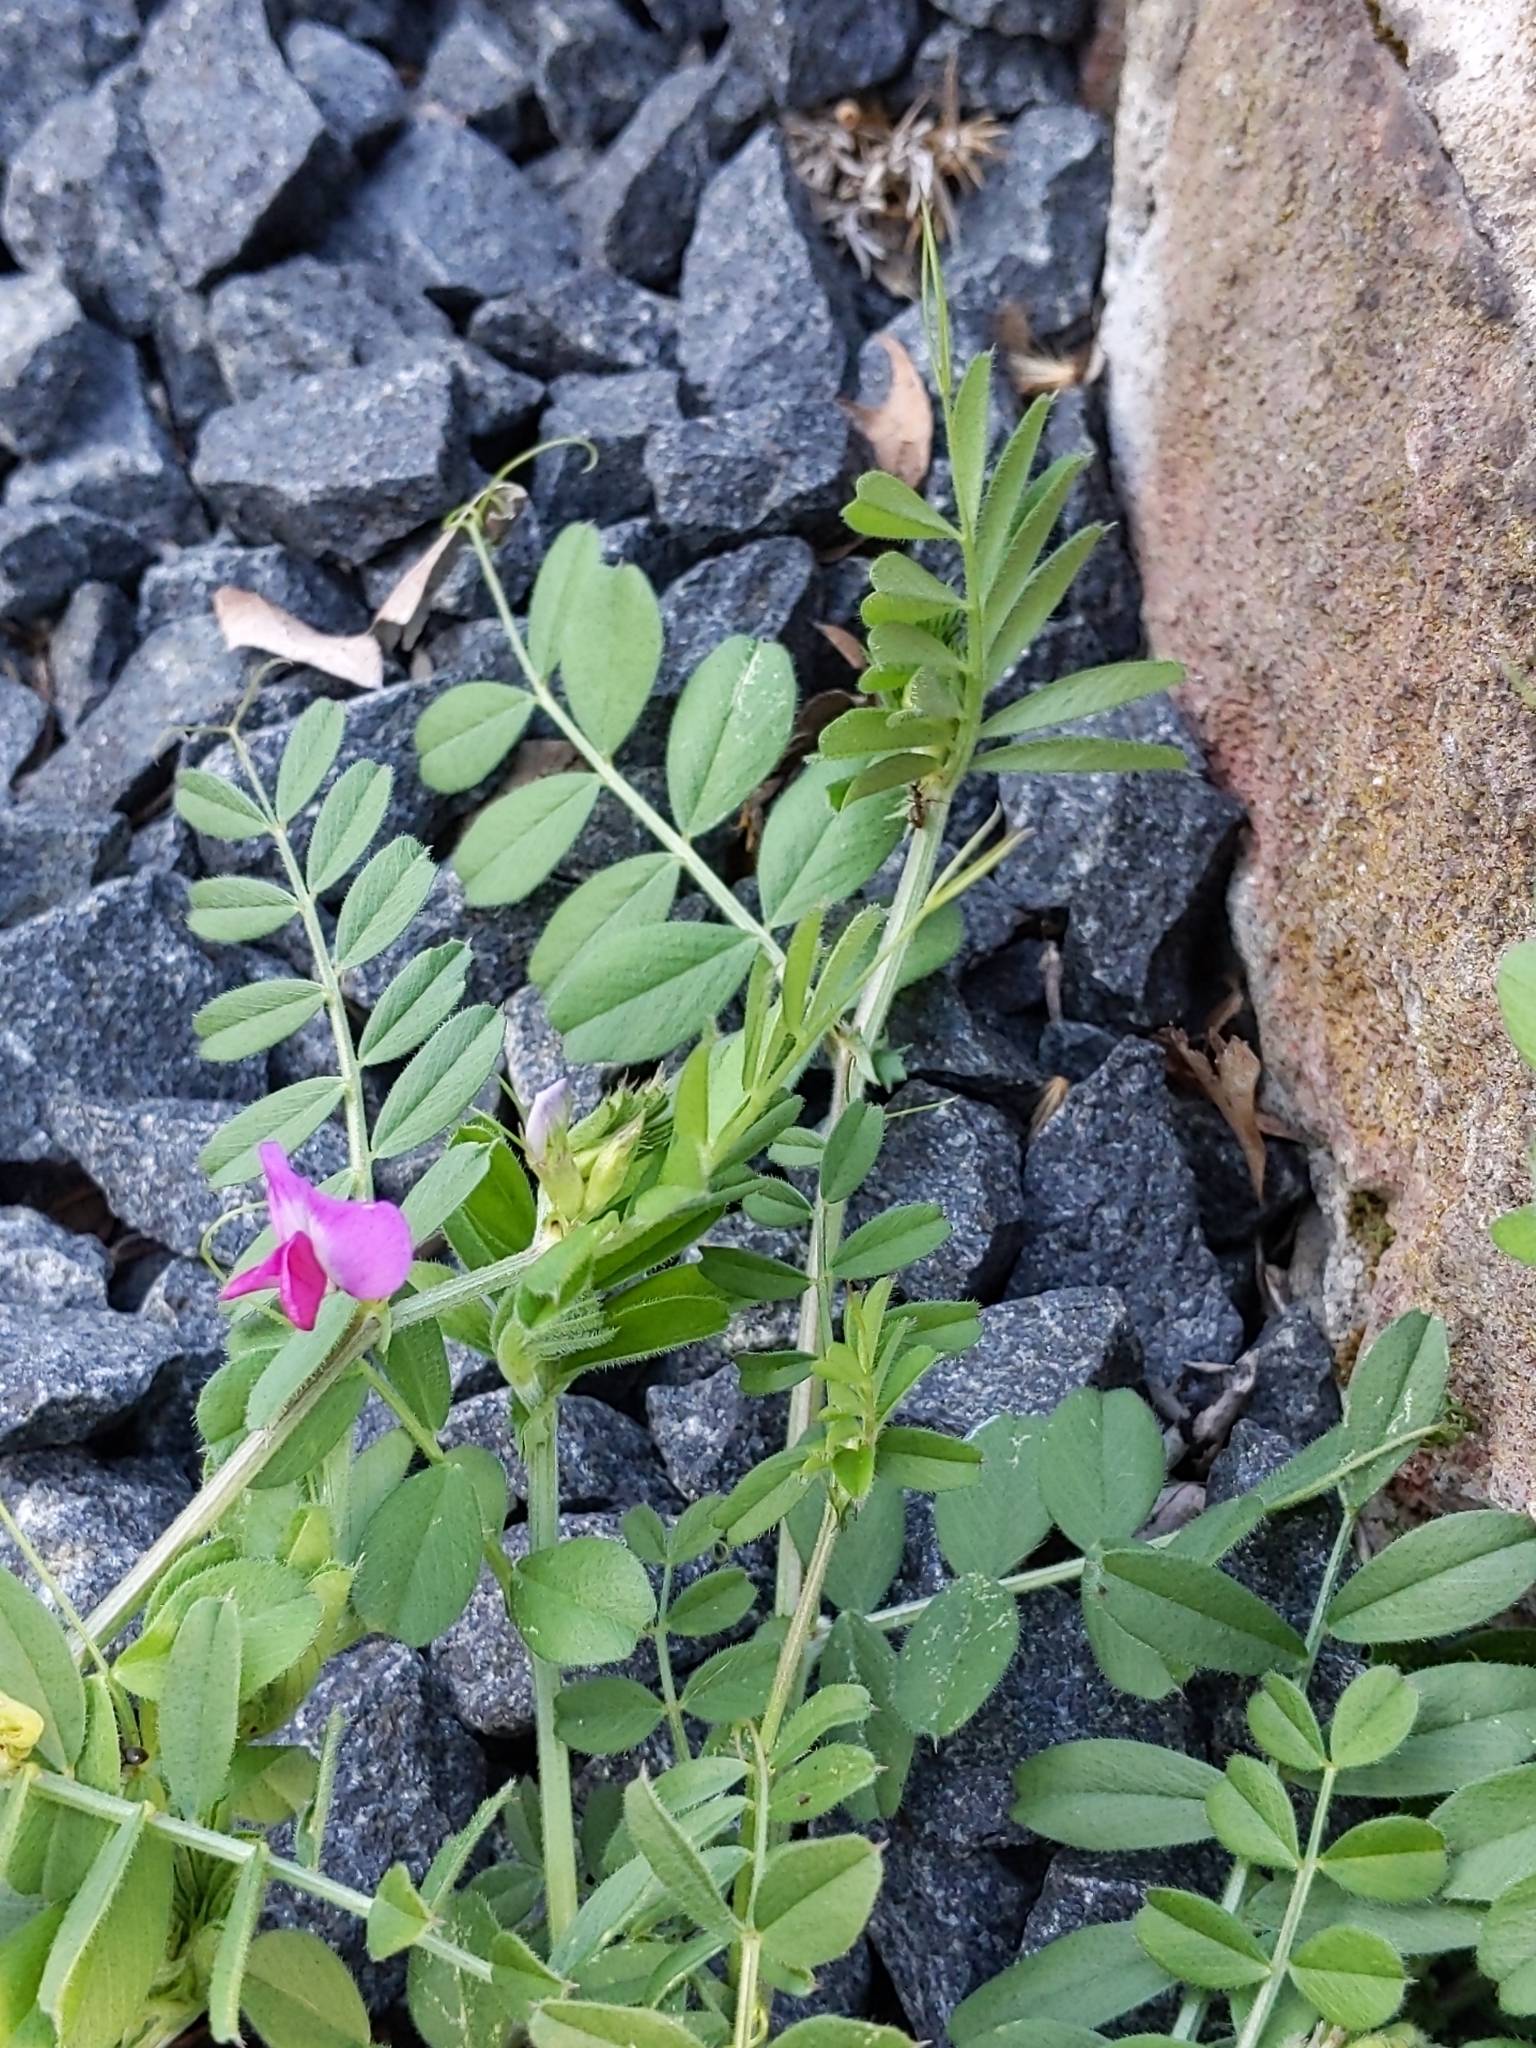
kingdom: Plantae
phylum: Tracheophyta
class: Magnoliopsida
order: Fabales
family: Fabaceae
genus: Vicia
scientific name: Vicia sativa
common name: Garden vetch
